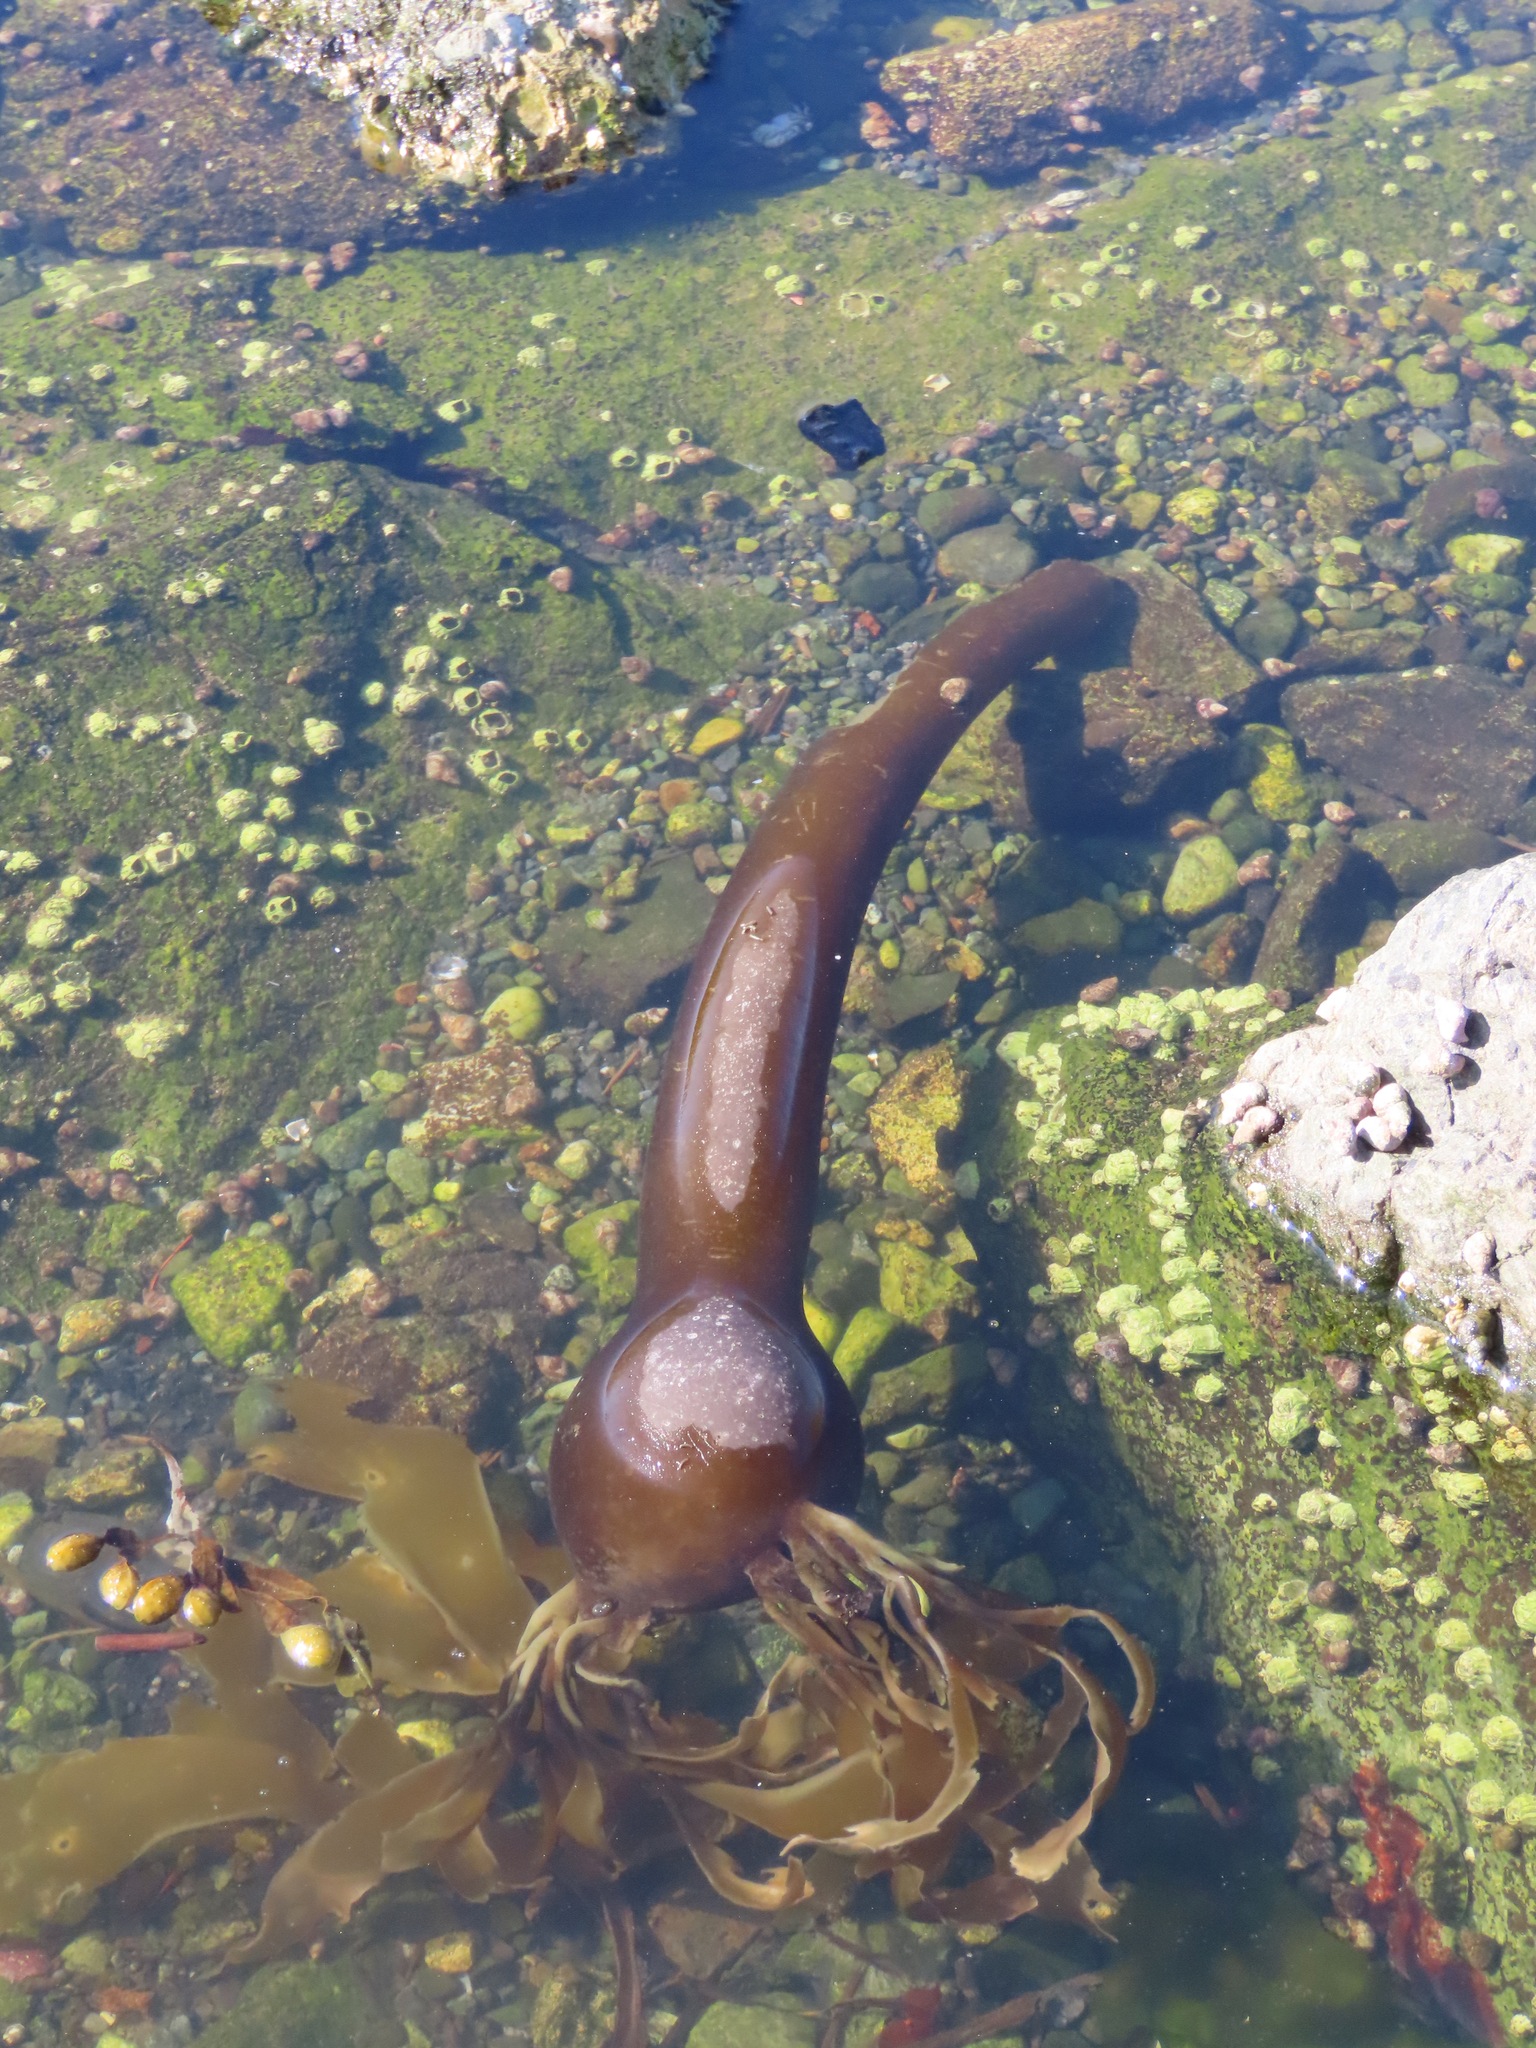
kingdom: Chromista
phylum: Ochrophyta
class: Phaeophyceae
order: Laminariales
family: Laminariaceae
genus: Nereocystis
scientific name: Nereocystis luetkeana
